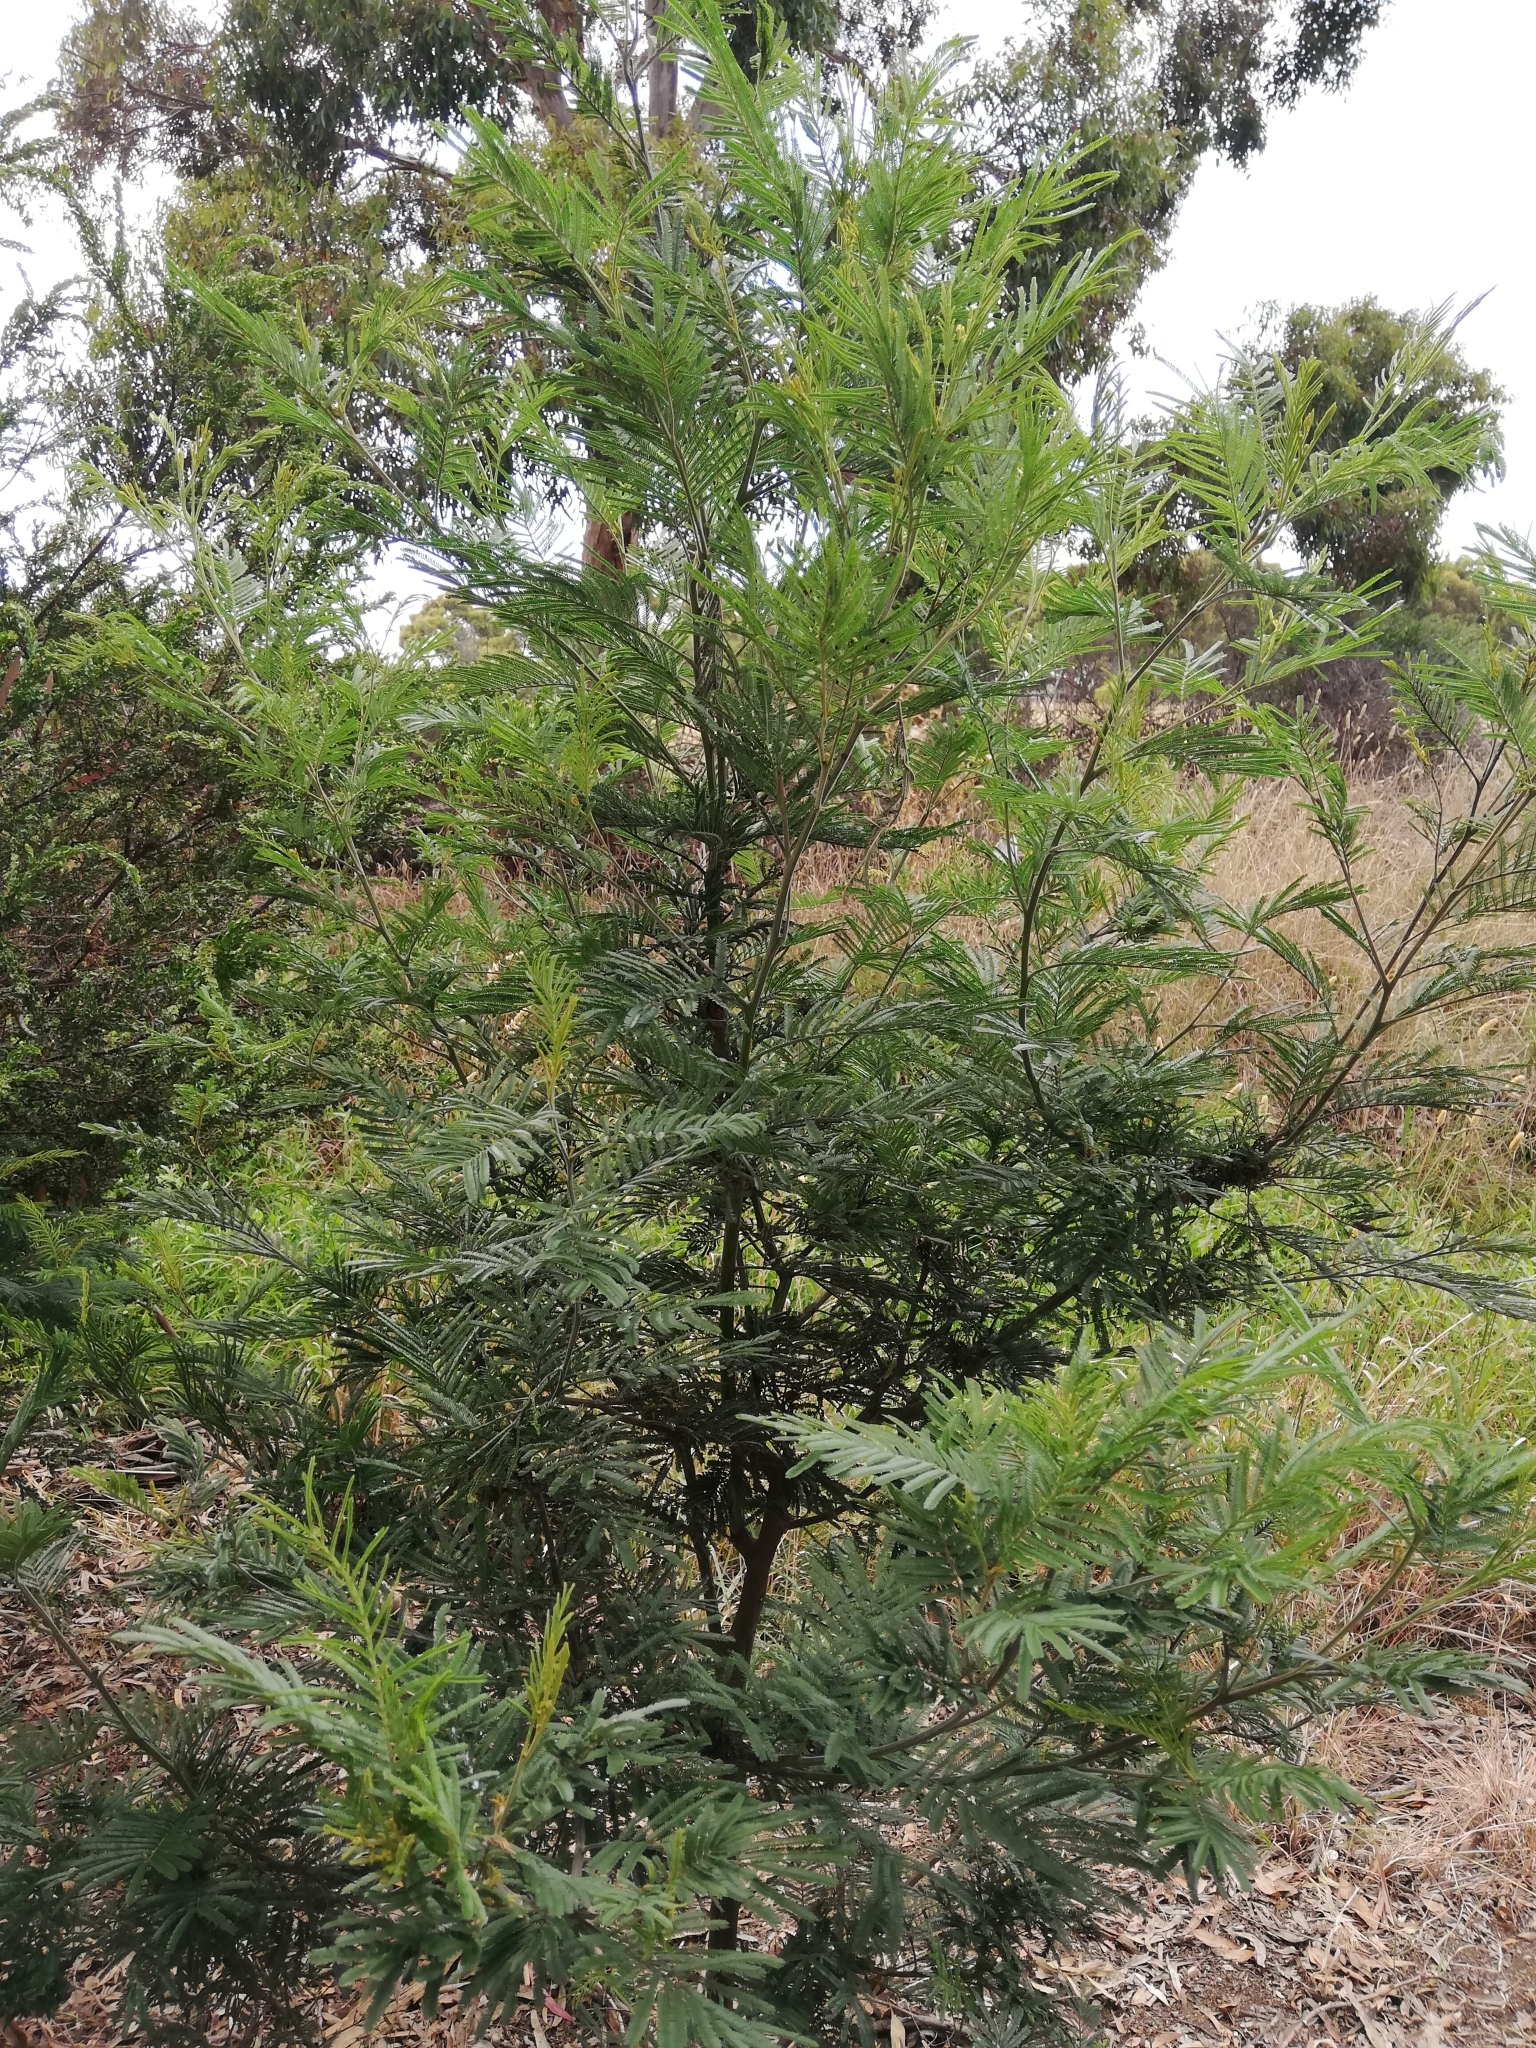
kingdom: Plantae
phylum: Tracheophyta
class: Magnoliopsida
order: Fabales
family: Fabaceae
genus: Acacia
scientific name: Acacia mearnsii
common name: Black wattle
